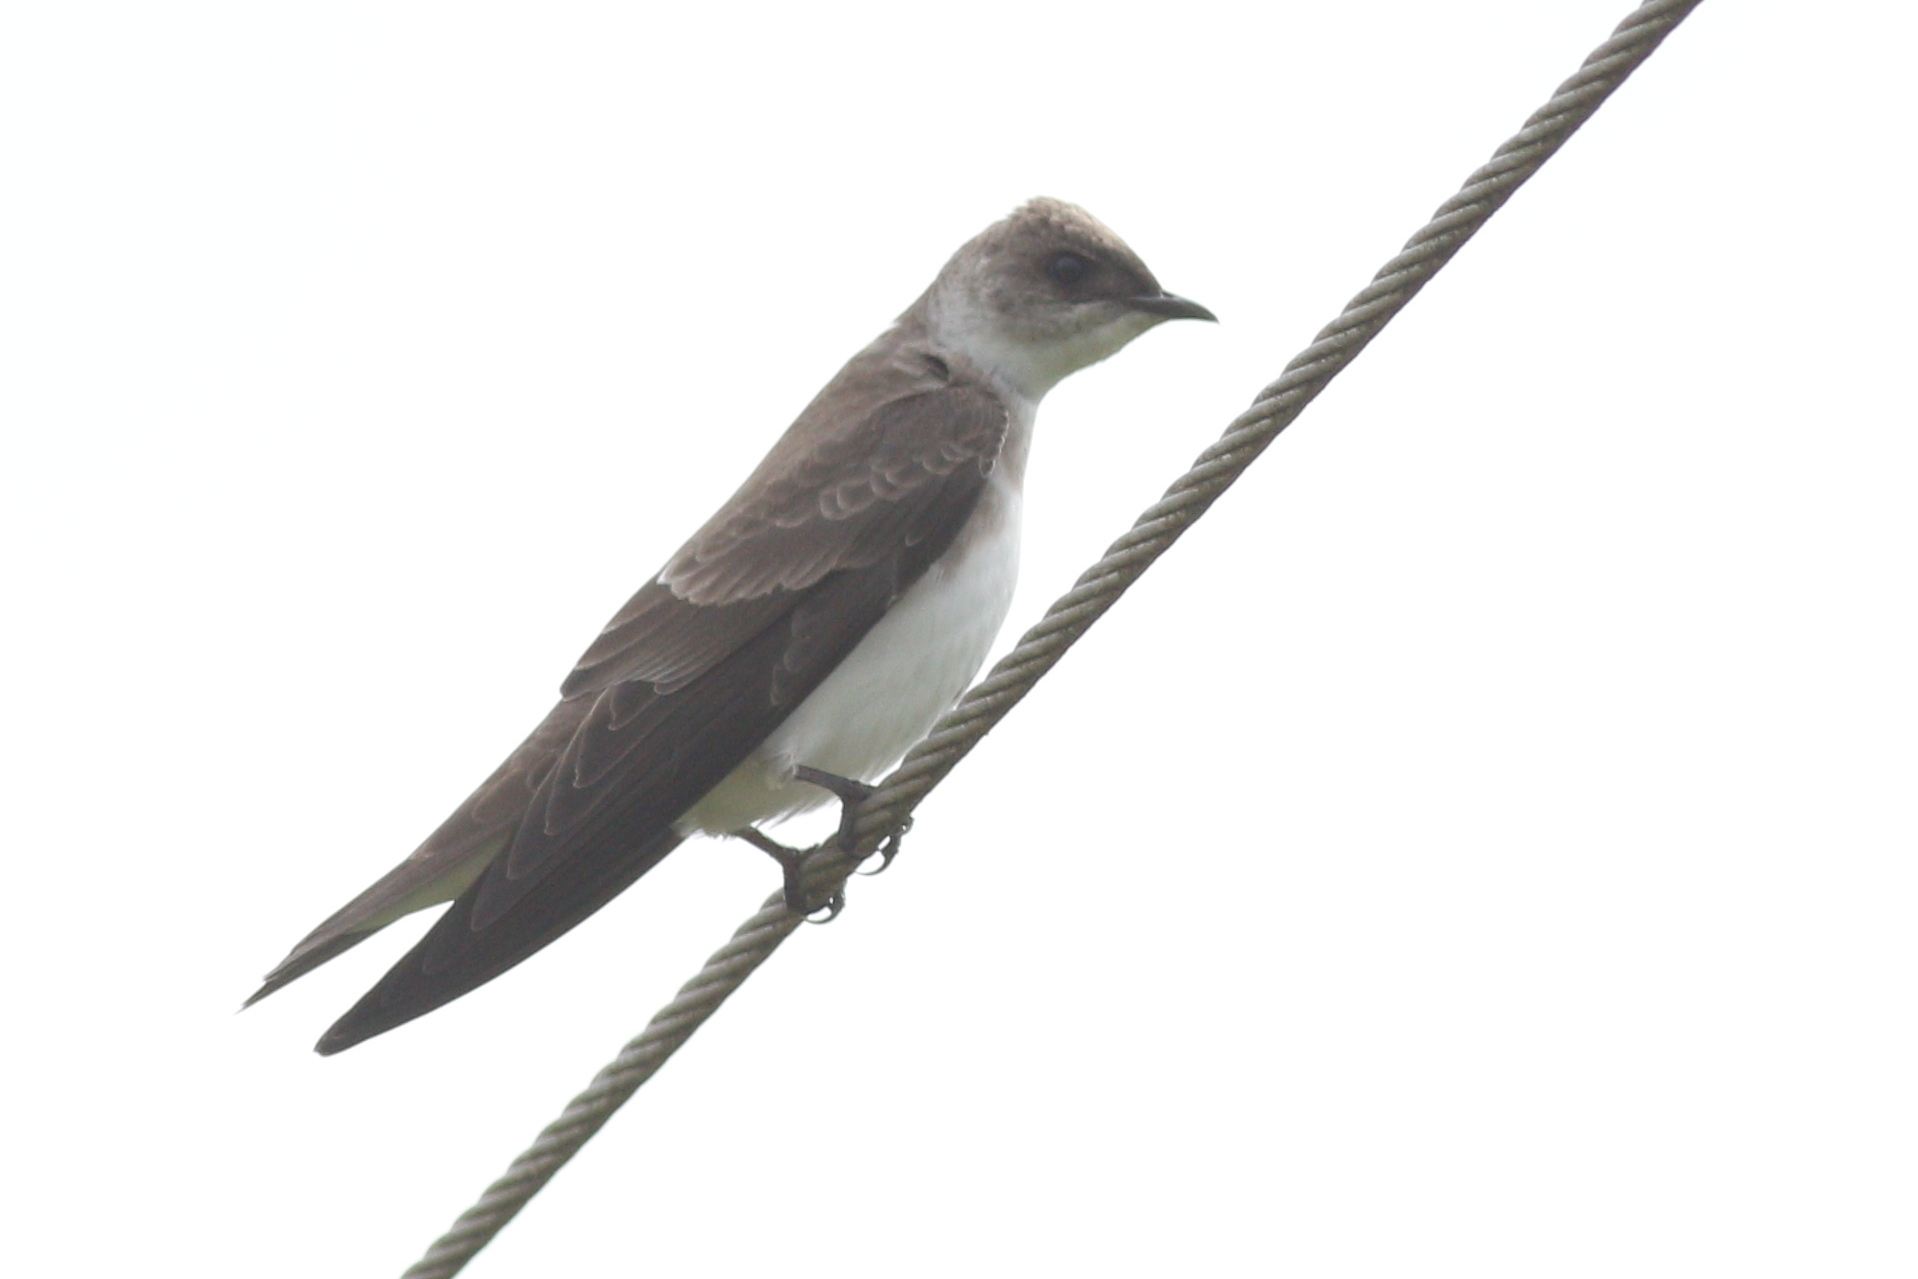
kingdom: Animalia
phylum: Chordata
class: Aves
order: Passeriformes
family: Hirundinidae
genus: Progne
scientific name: Progne tapera
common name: Brown-chested martin
